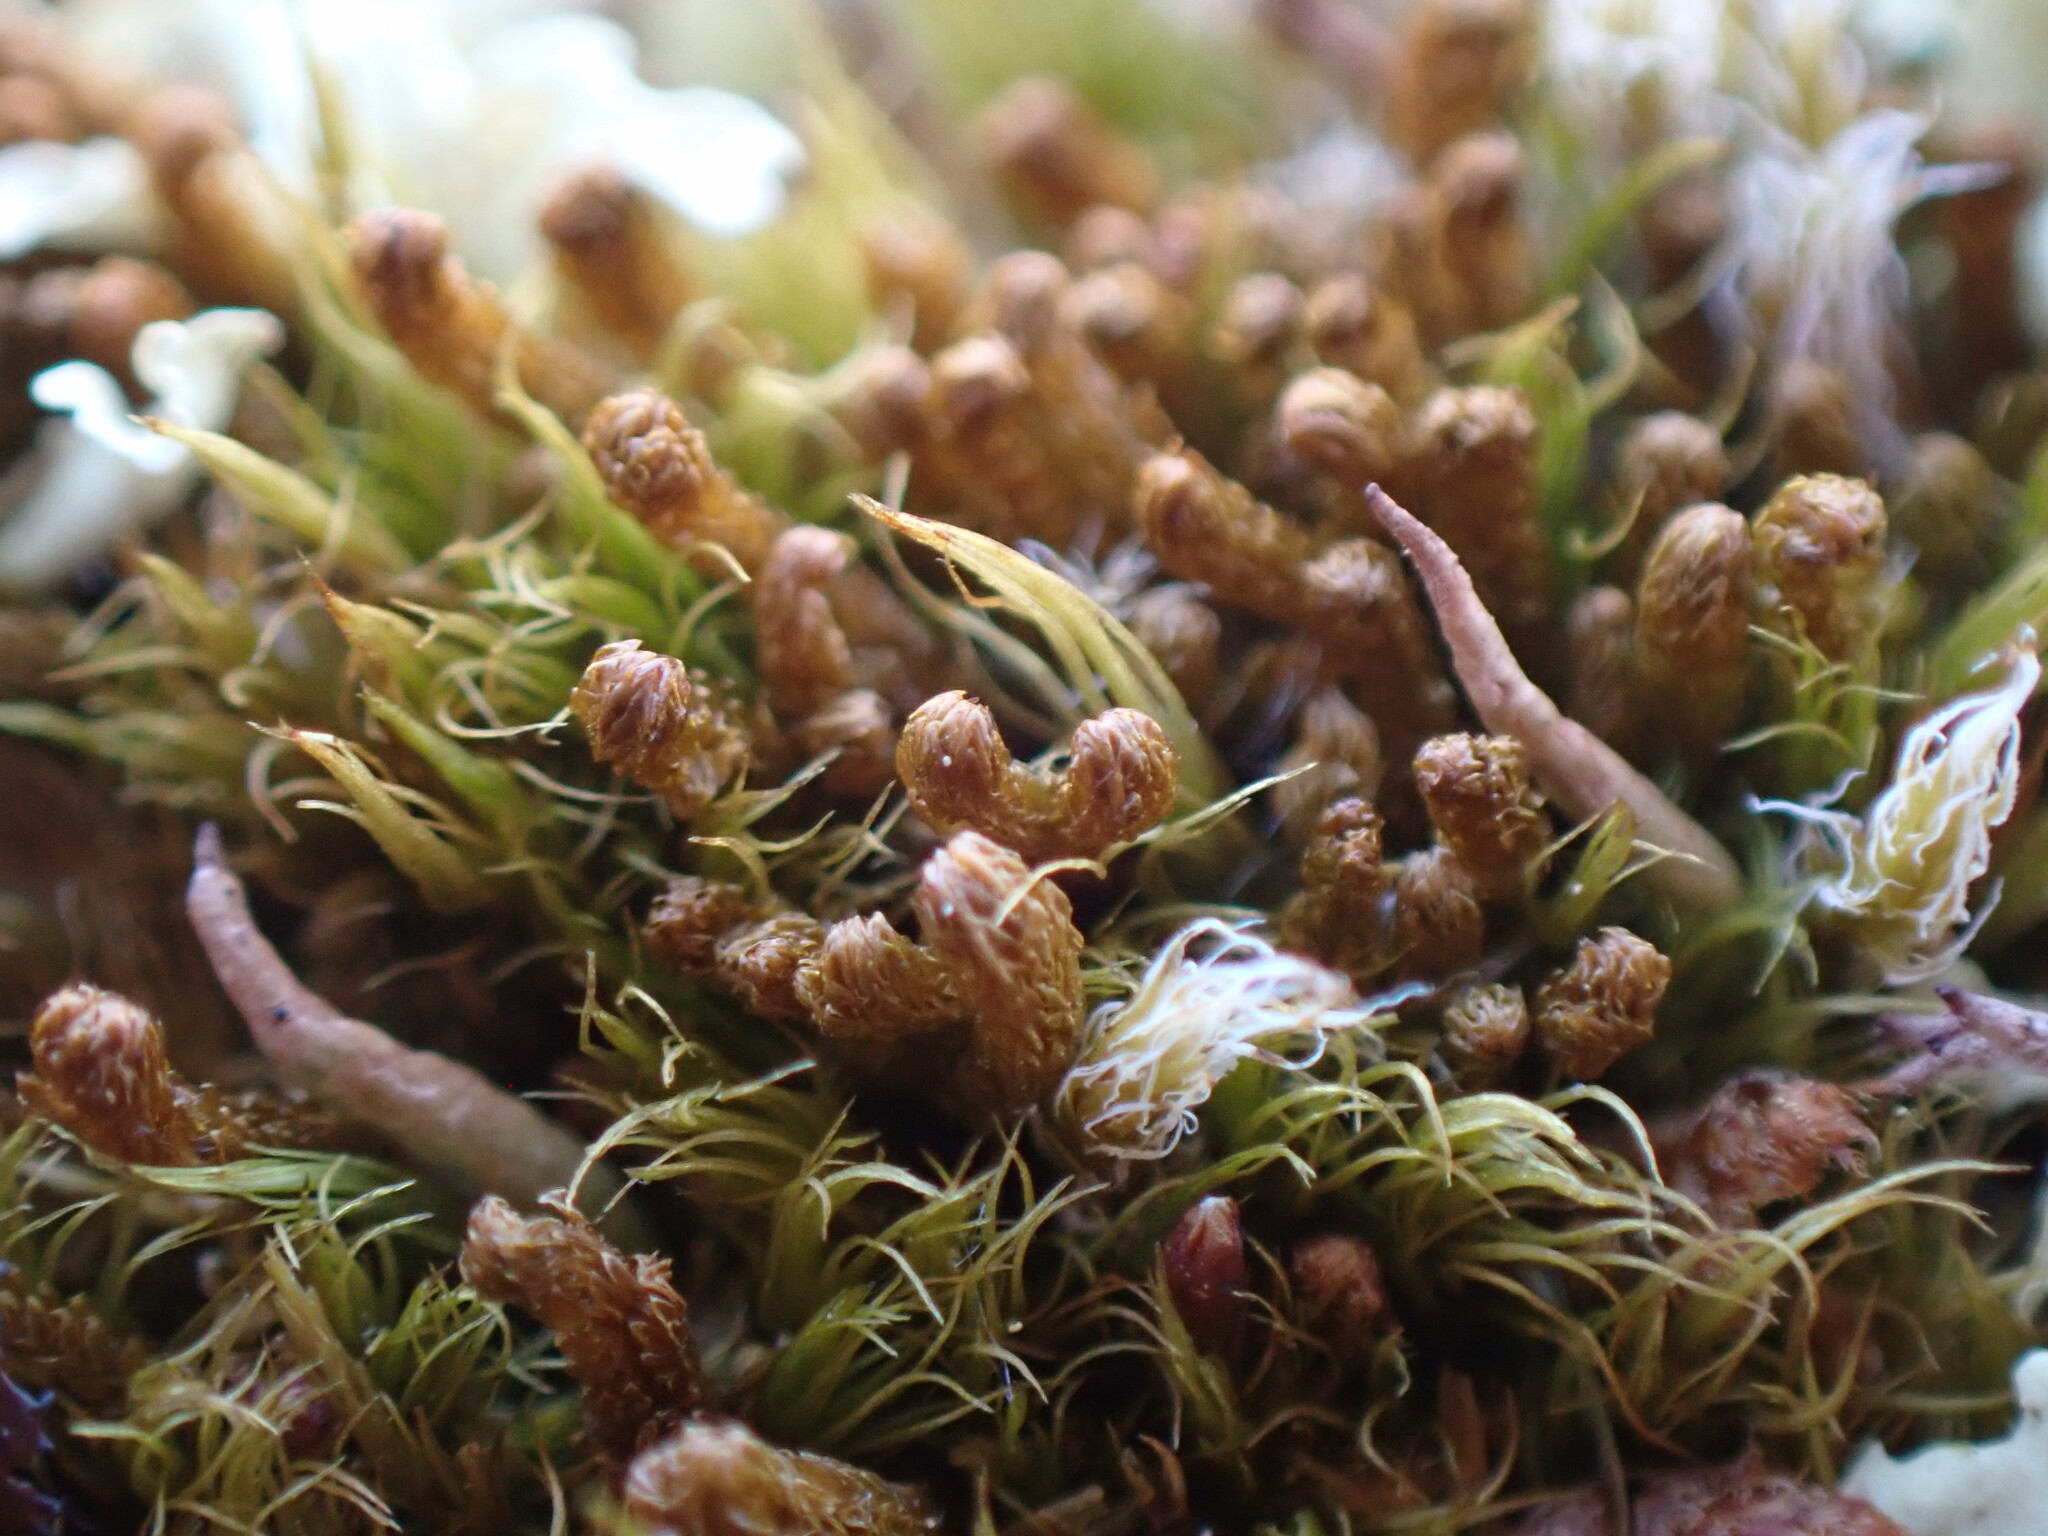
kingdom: Plantae
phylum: Marchantiophyta
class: Jungermanniopsida
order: Jungermanniales
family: Anastrophyllaceae
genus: Tetralophozia
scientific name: Tetralophozia setiformis
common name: Monster pawwort
